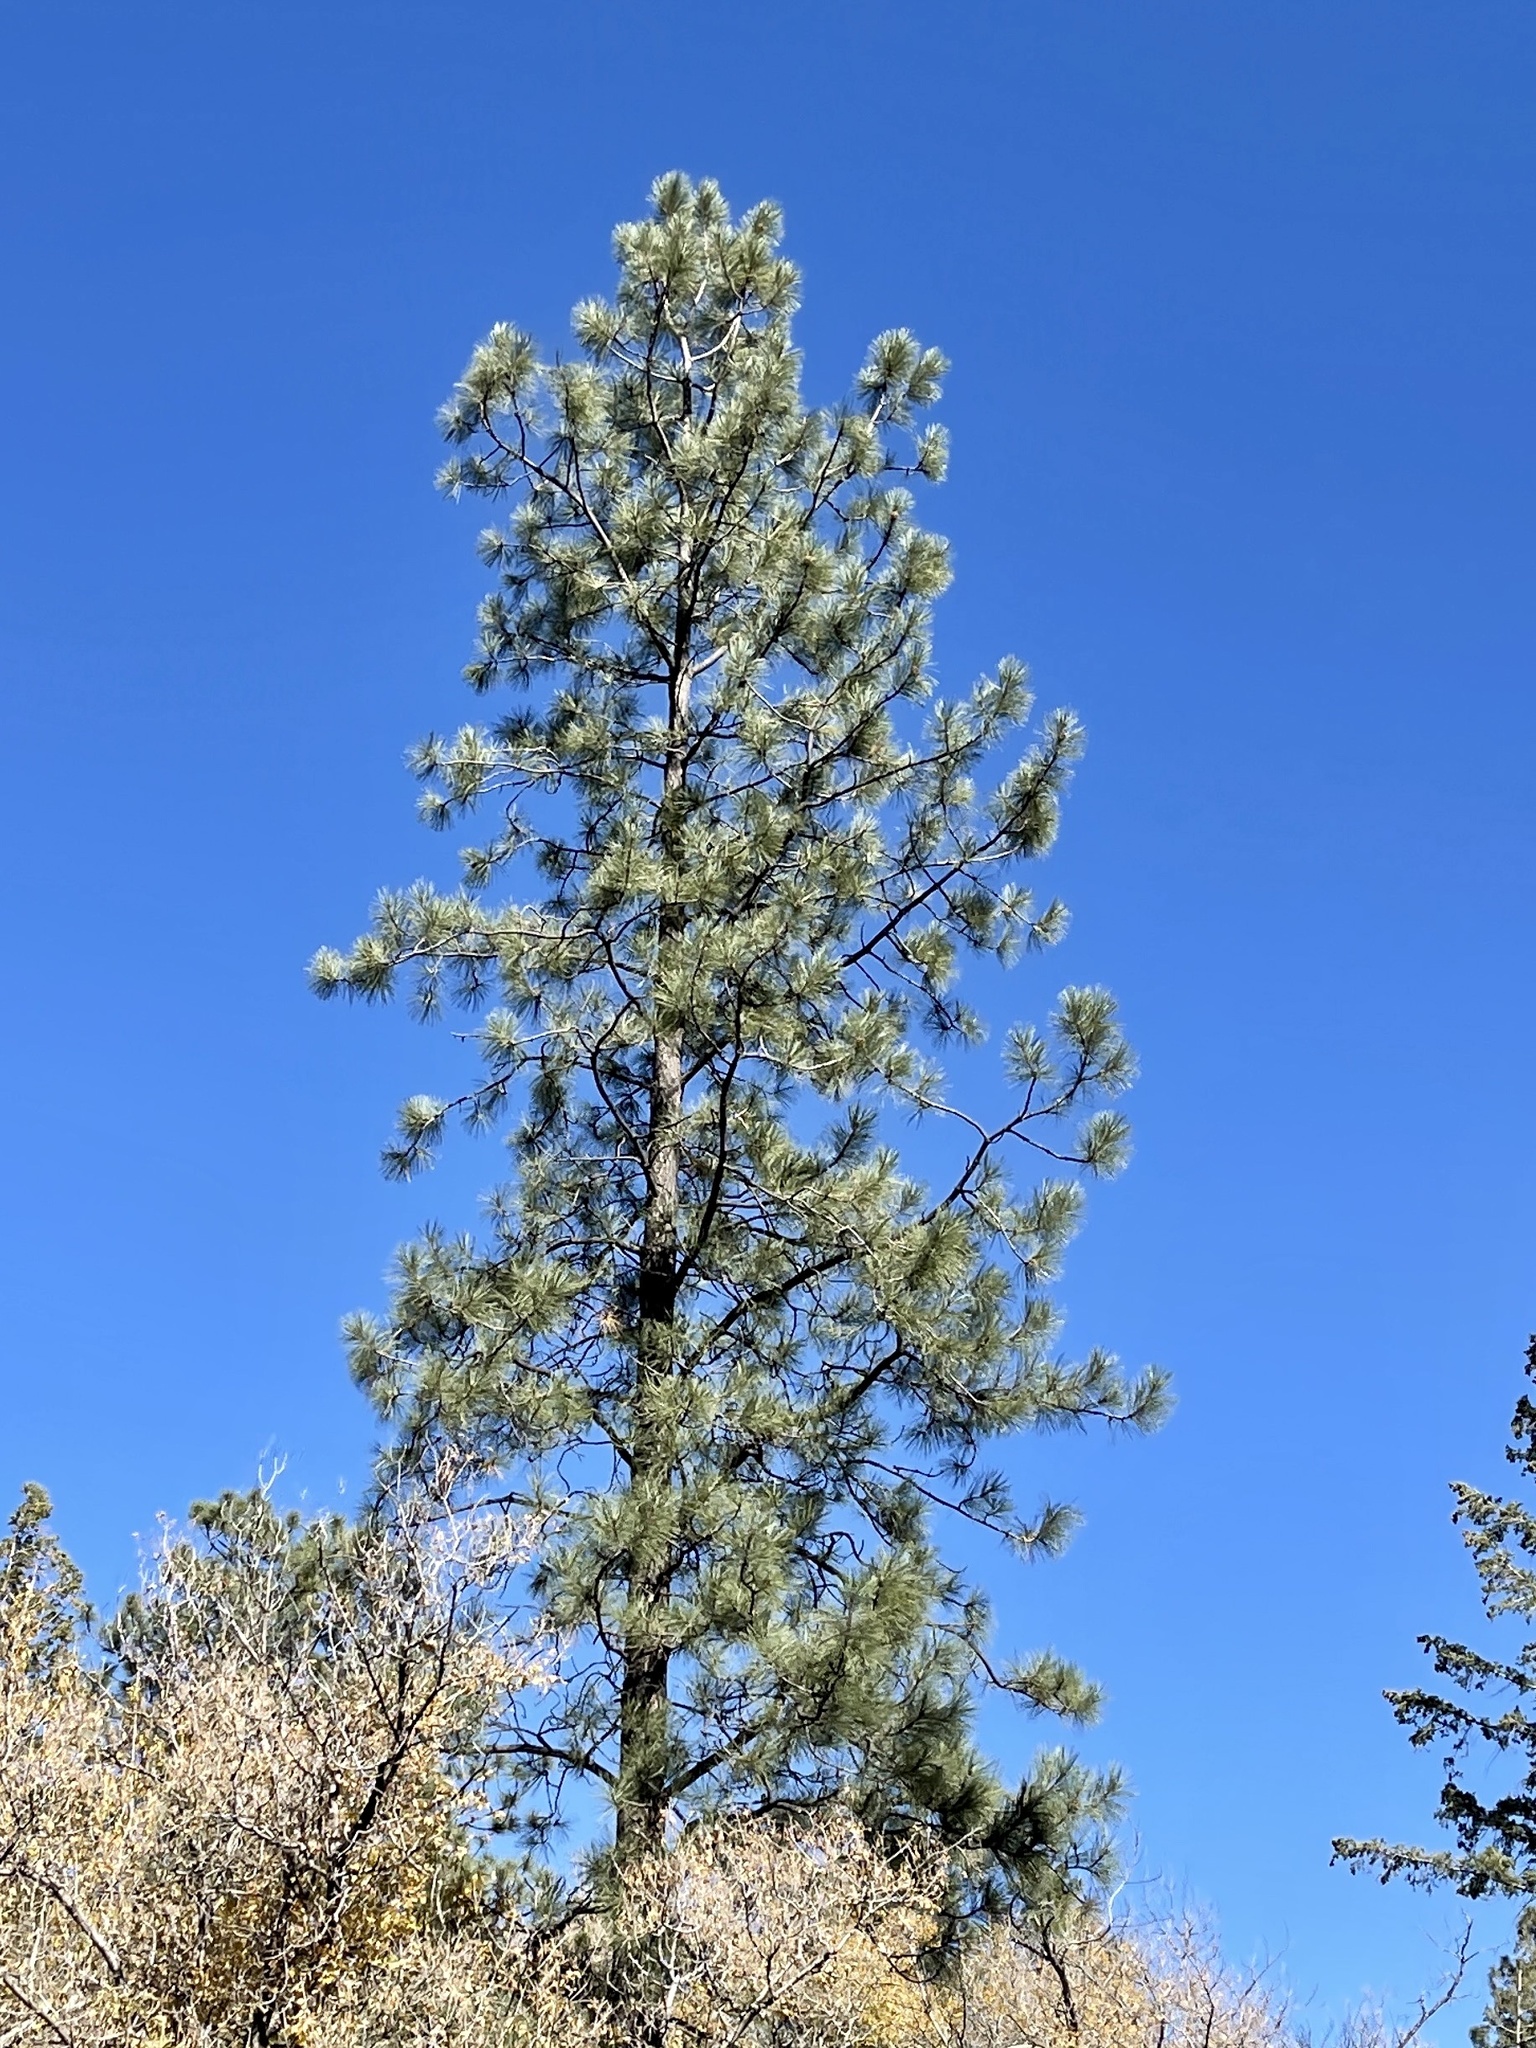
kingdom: Plantae
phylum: Tracheophyta
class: Pinopsida
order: Pinales
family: Pinaceae
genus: Pinus
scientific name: Pinus ponderosa
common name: Western yellow-pine
